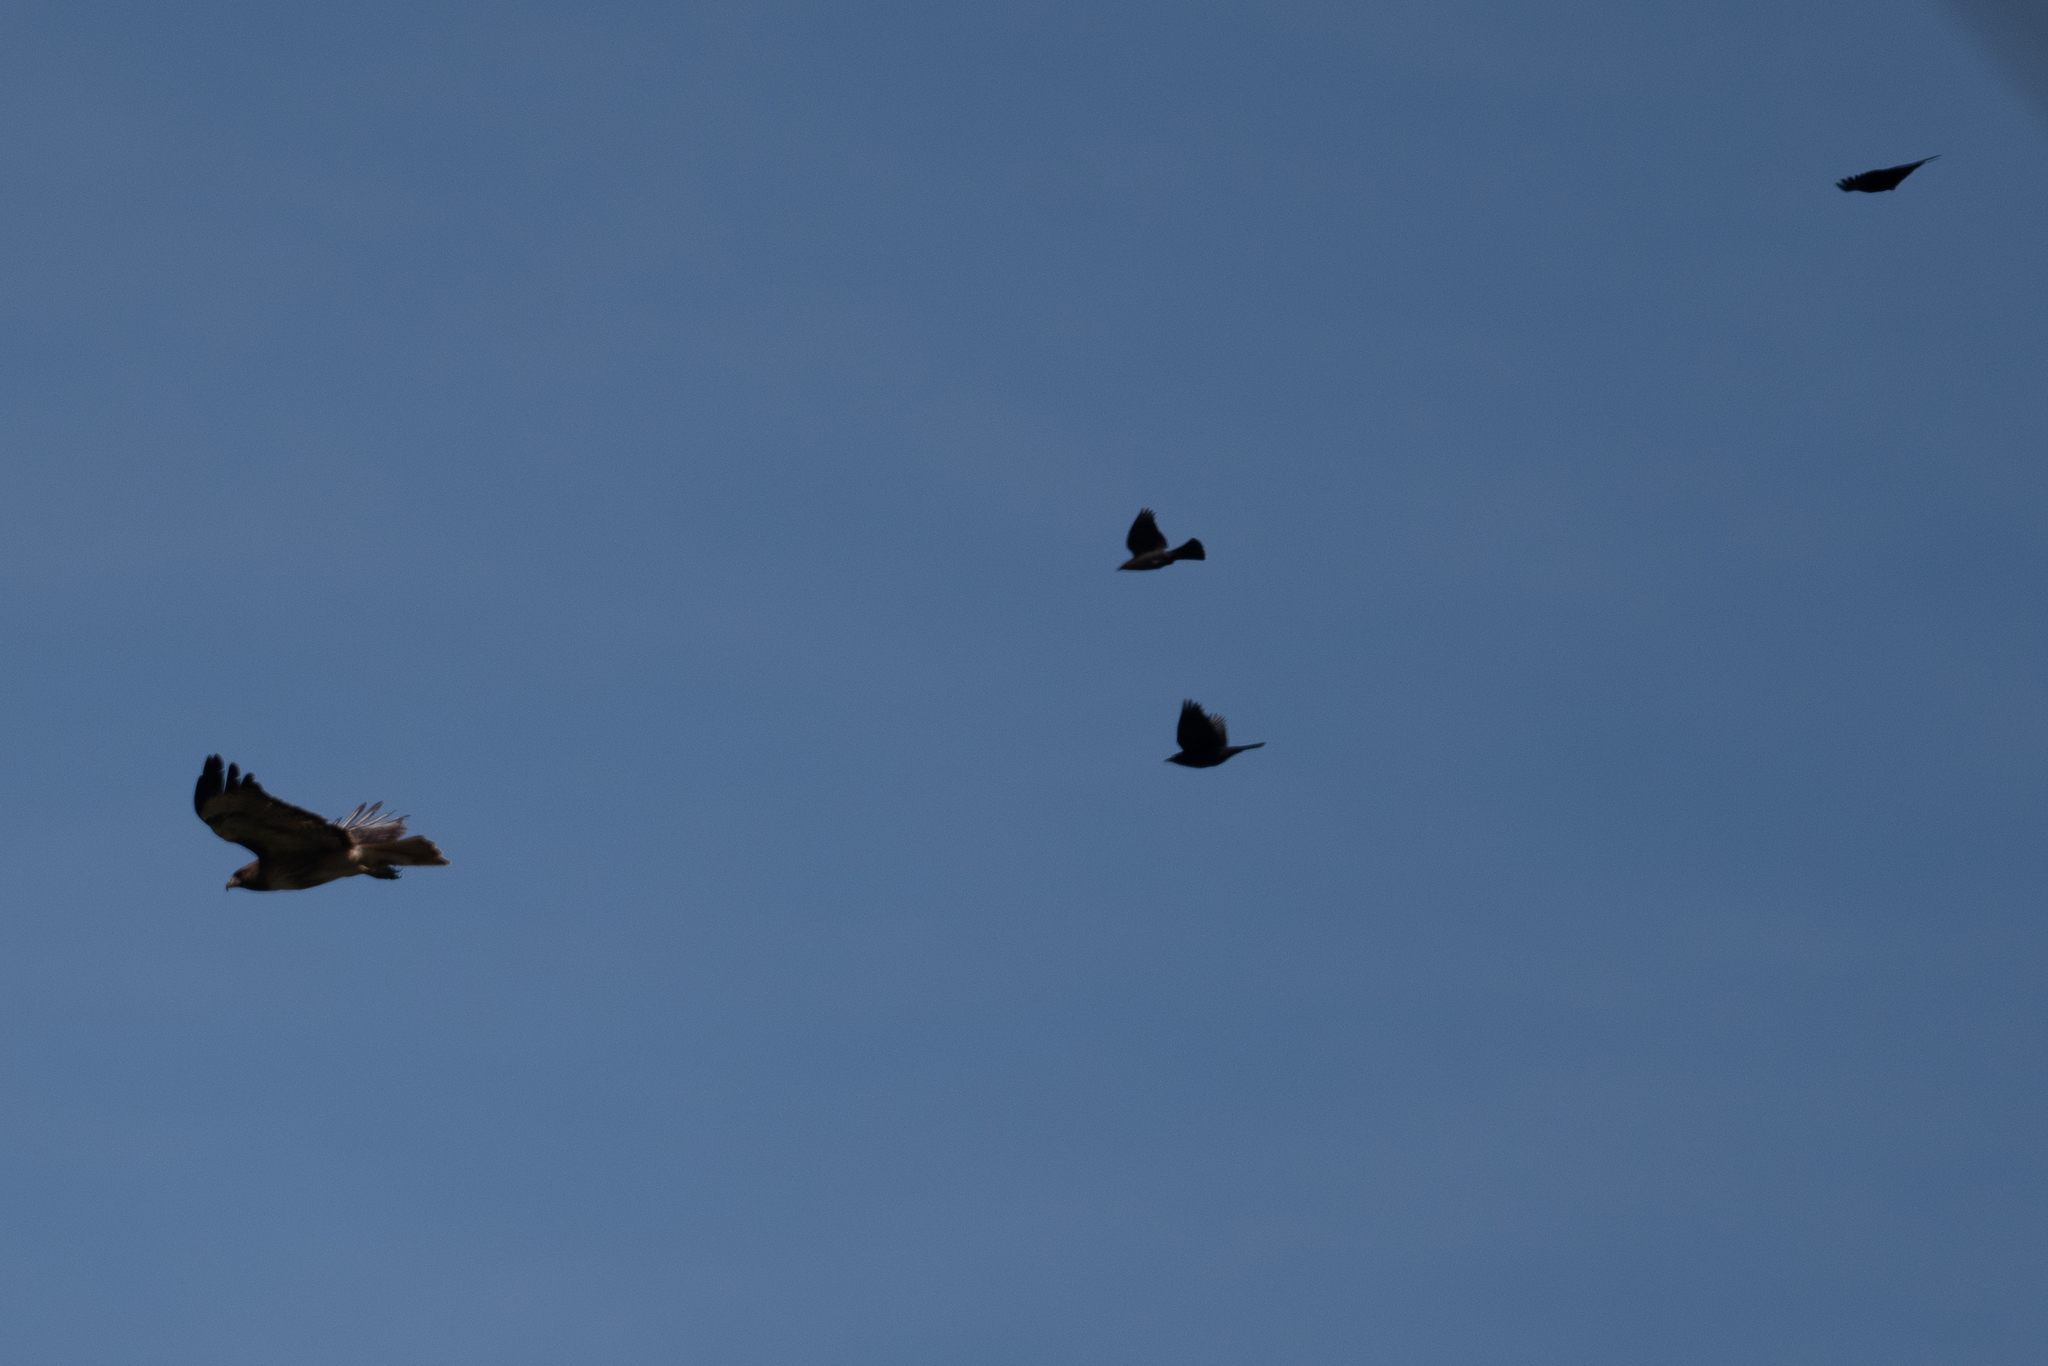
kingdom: Animalia
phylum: Chordata
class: Aves
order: Accipitriformes
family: Accipitridae
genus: Buteo
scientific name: Buteo jamaicensis
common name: Red-tailed hawk
